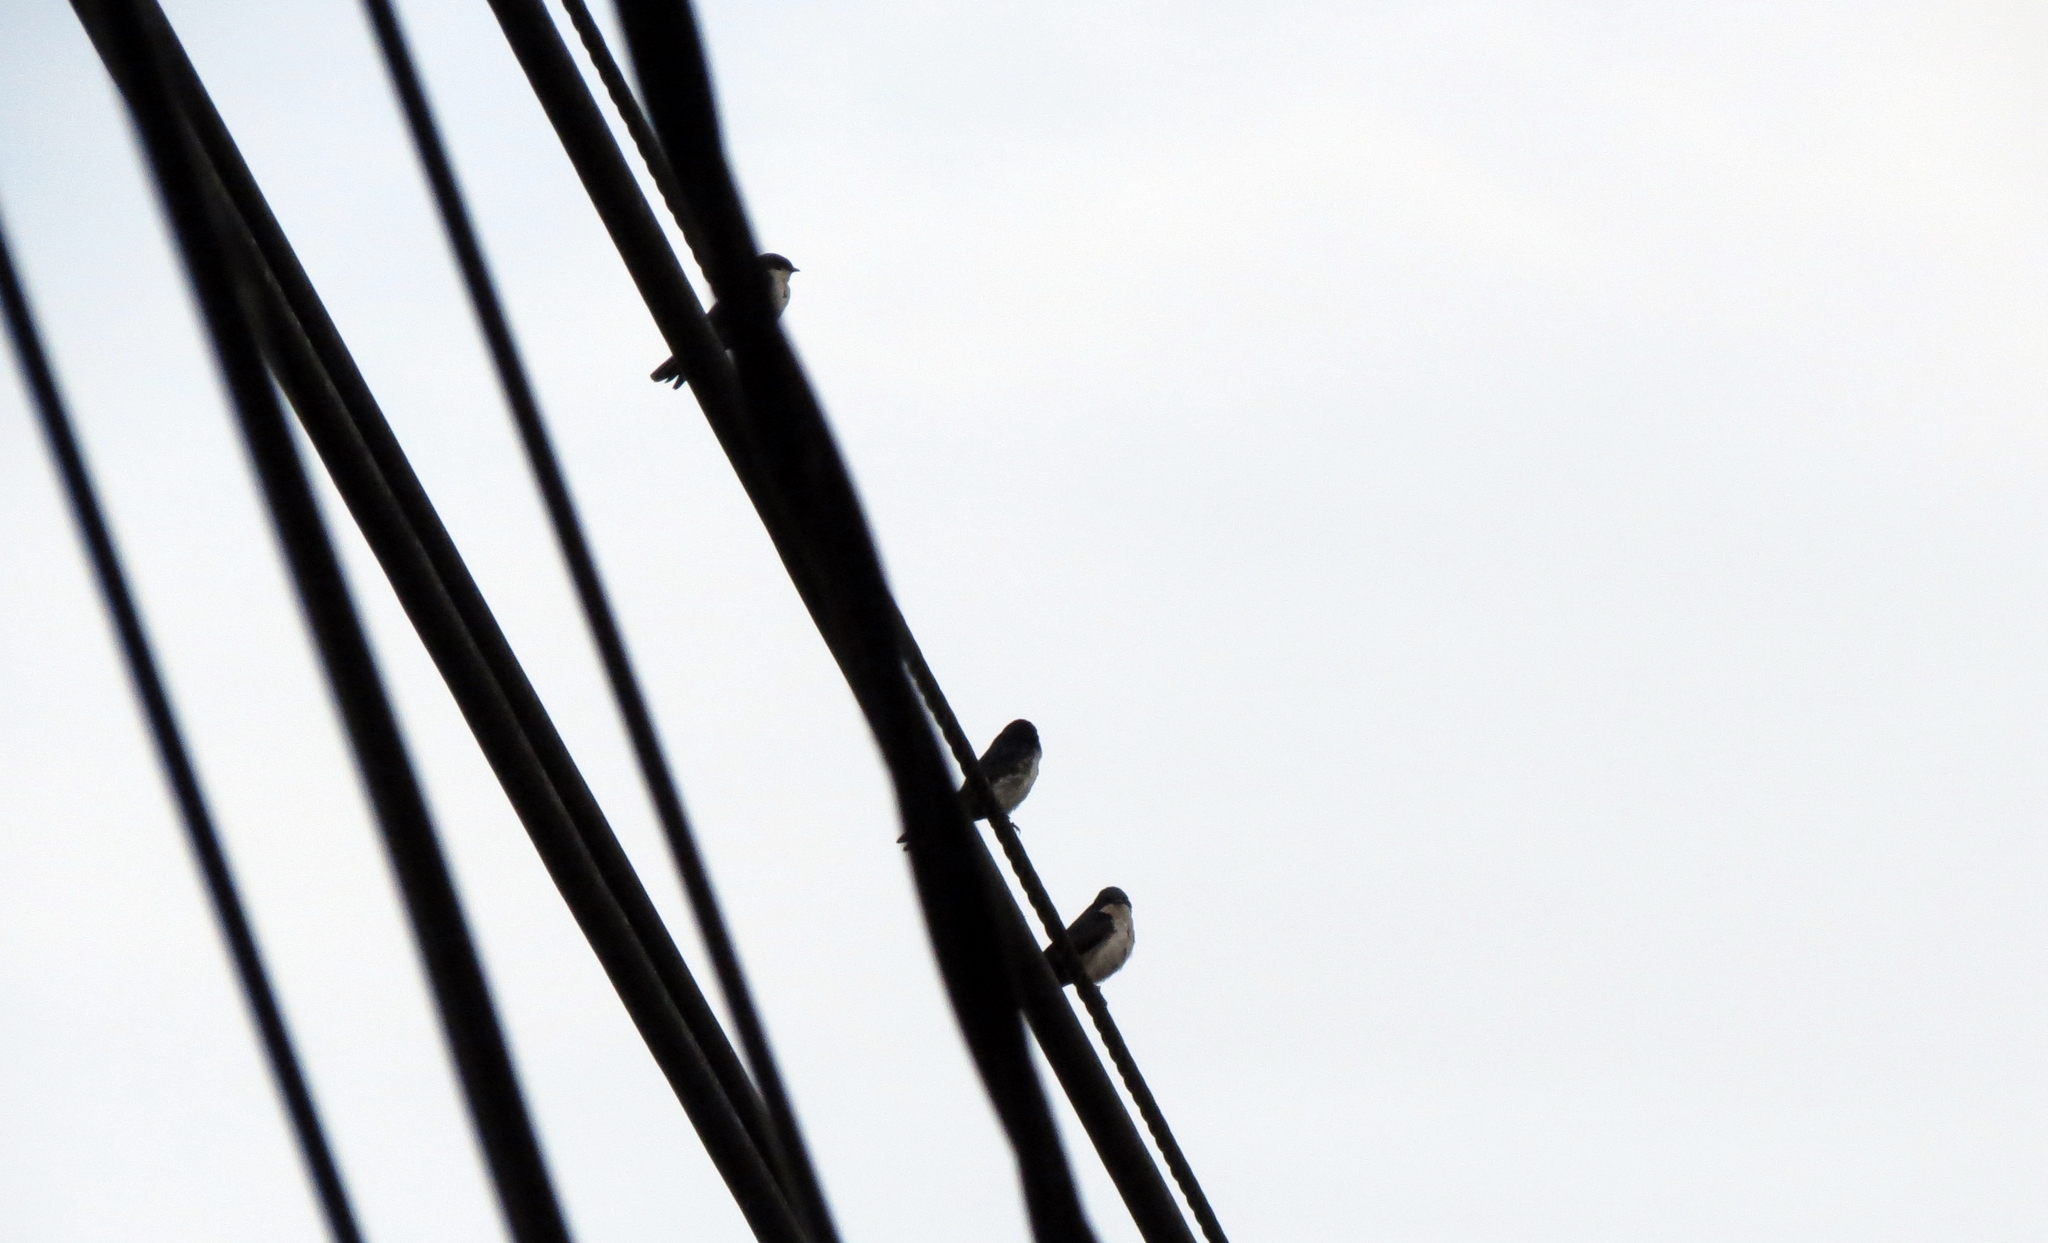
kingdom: Animalia
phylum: Chordata
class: Aves
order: Passeriformes
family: Hirundinidae
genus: Notiochelidon
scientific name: Notiochelidon cyanoleuca
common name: Blue-and-white swallow
